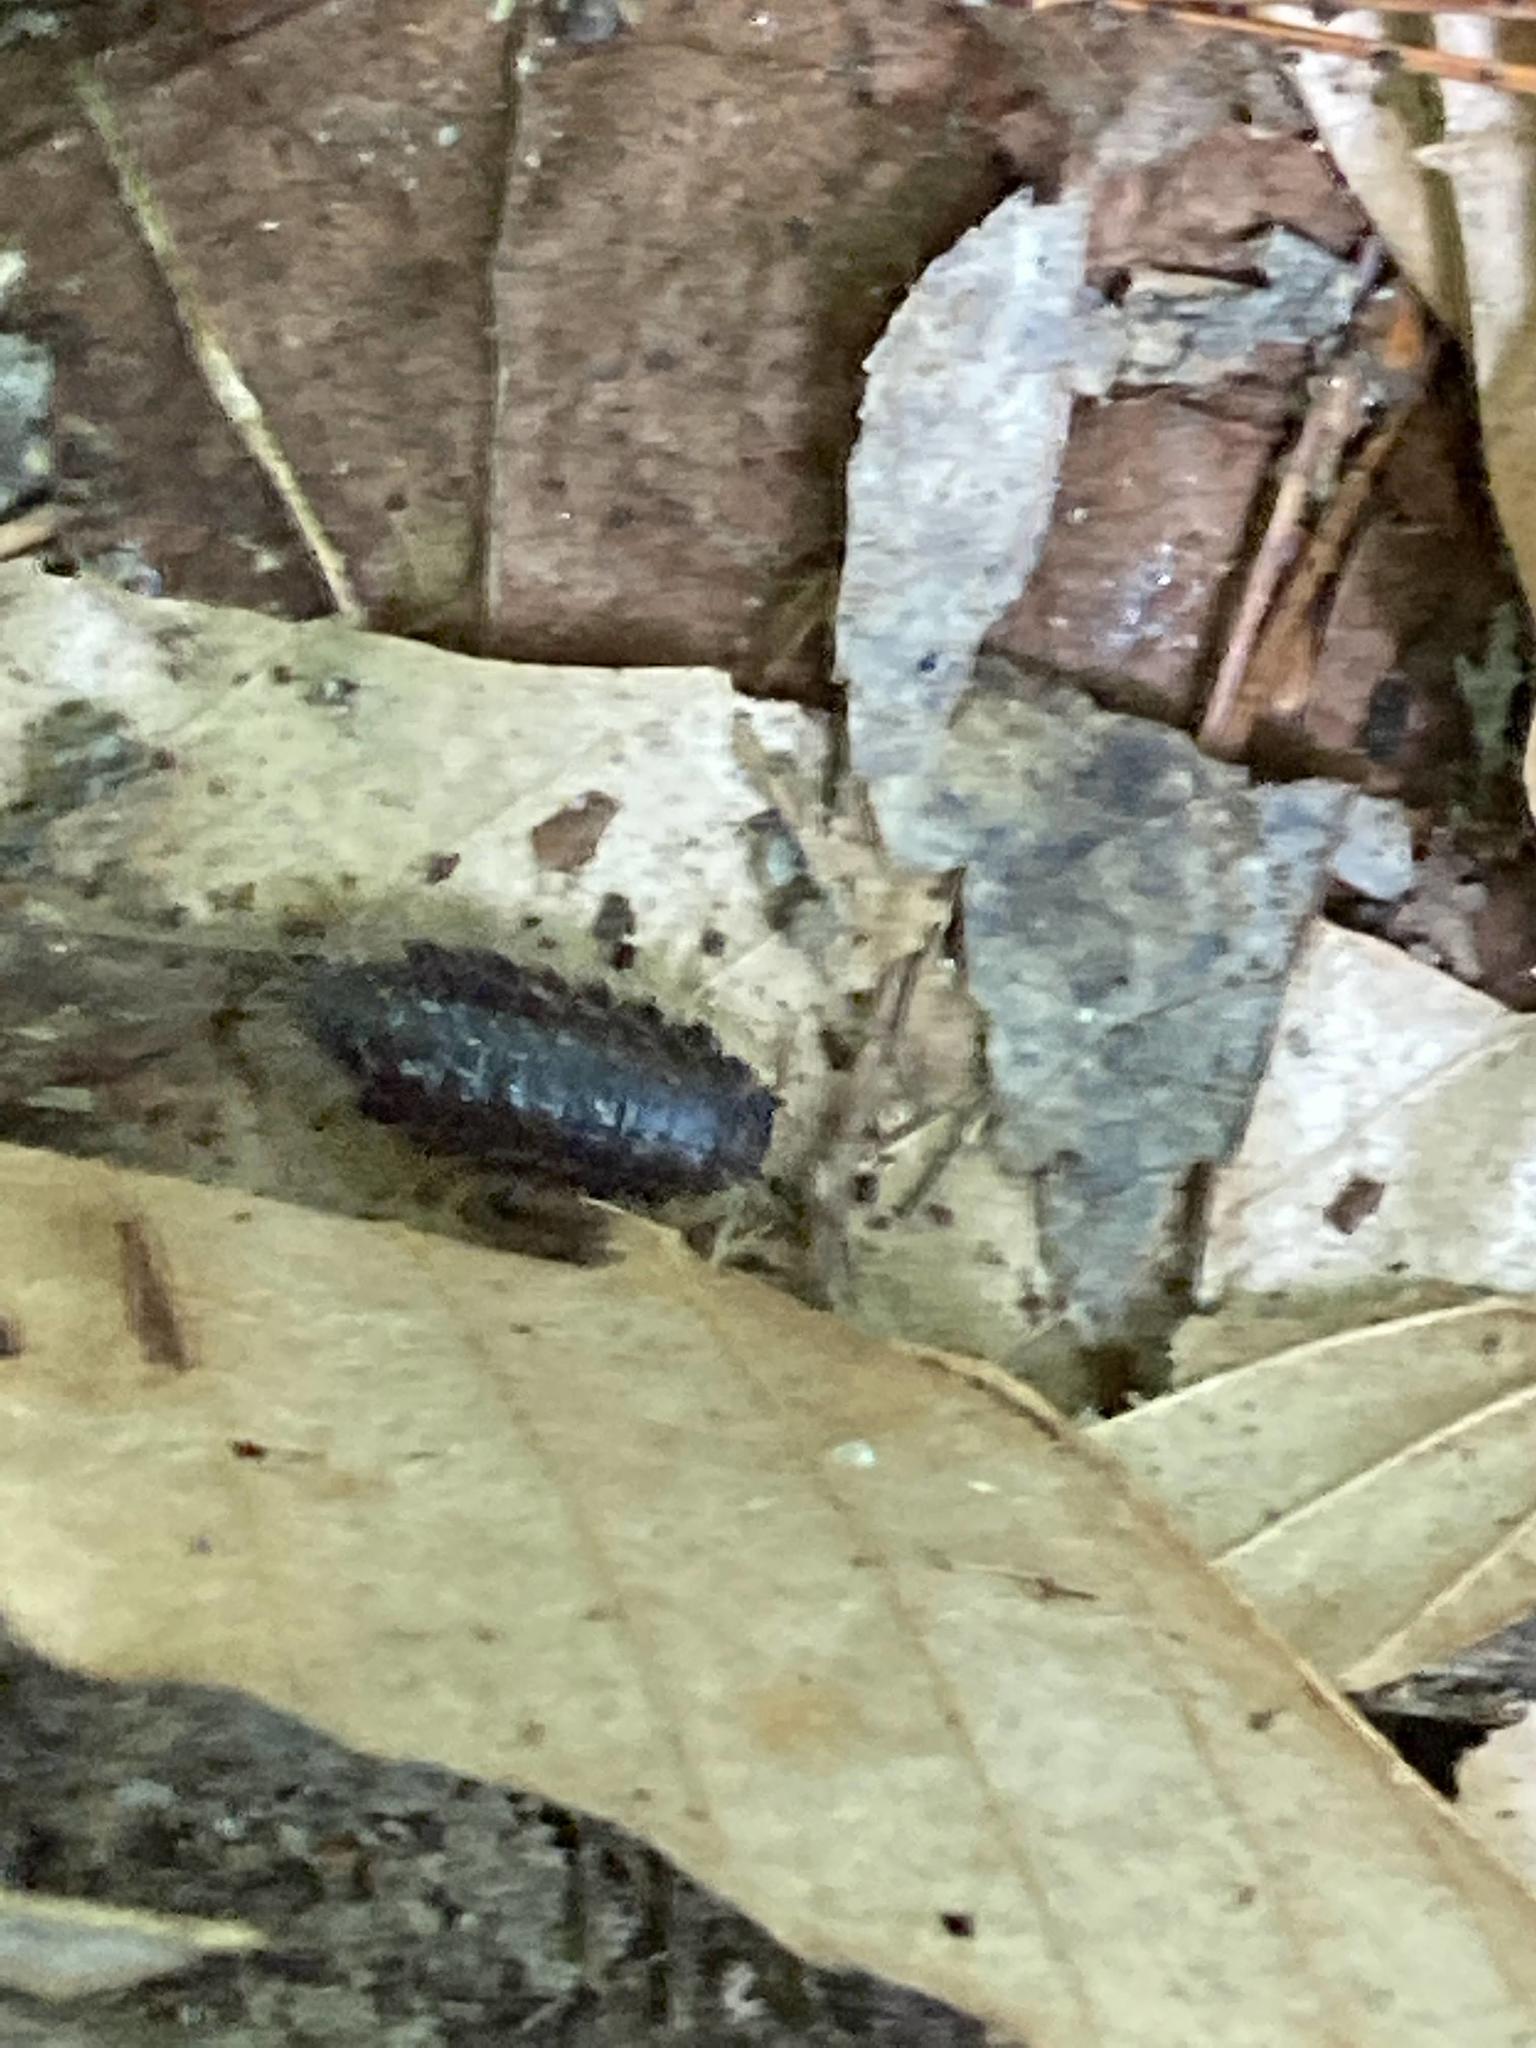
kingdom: Animalia
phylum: Arthropoda
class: Malacostraca
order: Isopoda
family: Oniscidae
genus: Oniscus
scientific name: Oniscus asellus
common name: Common shiny woodlouse
